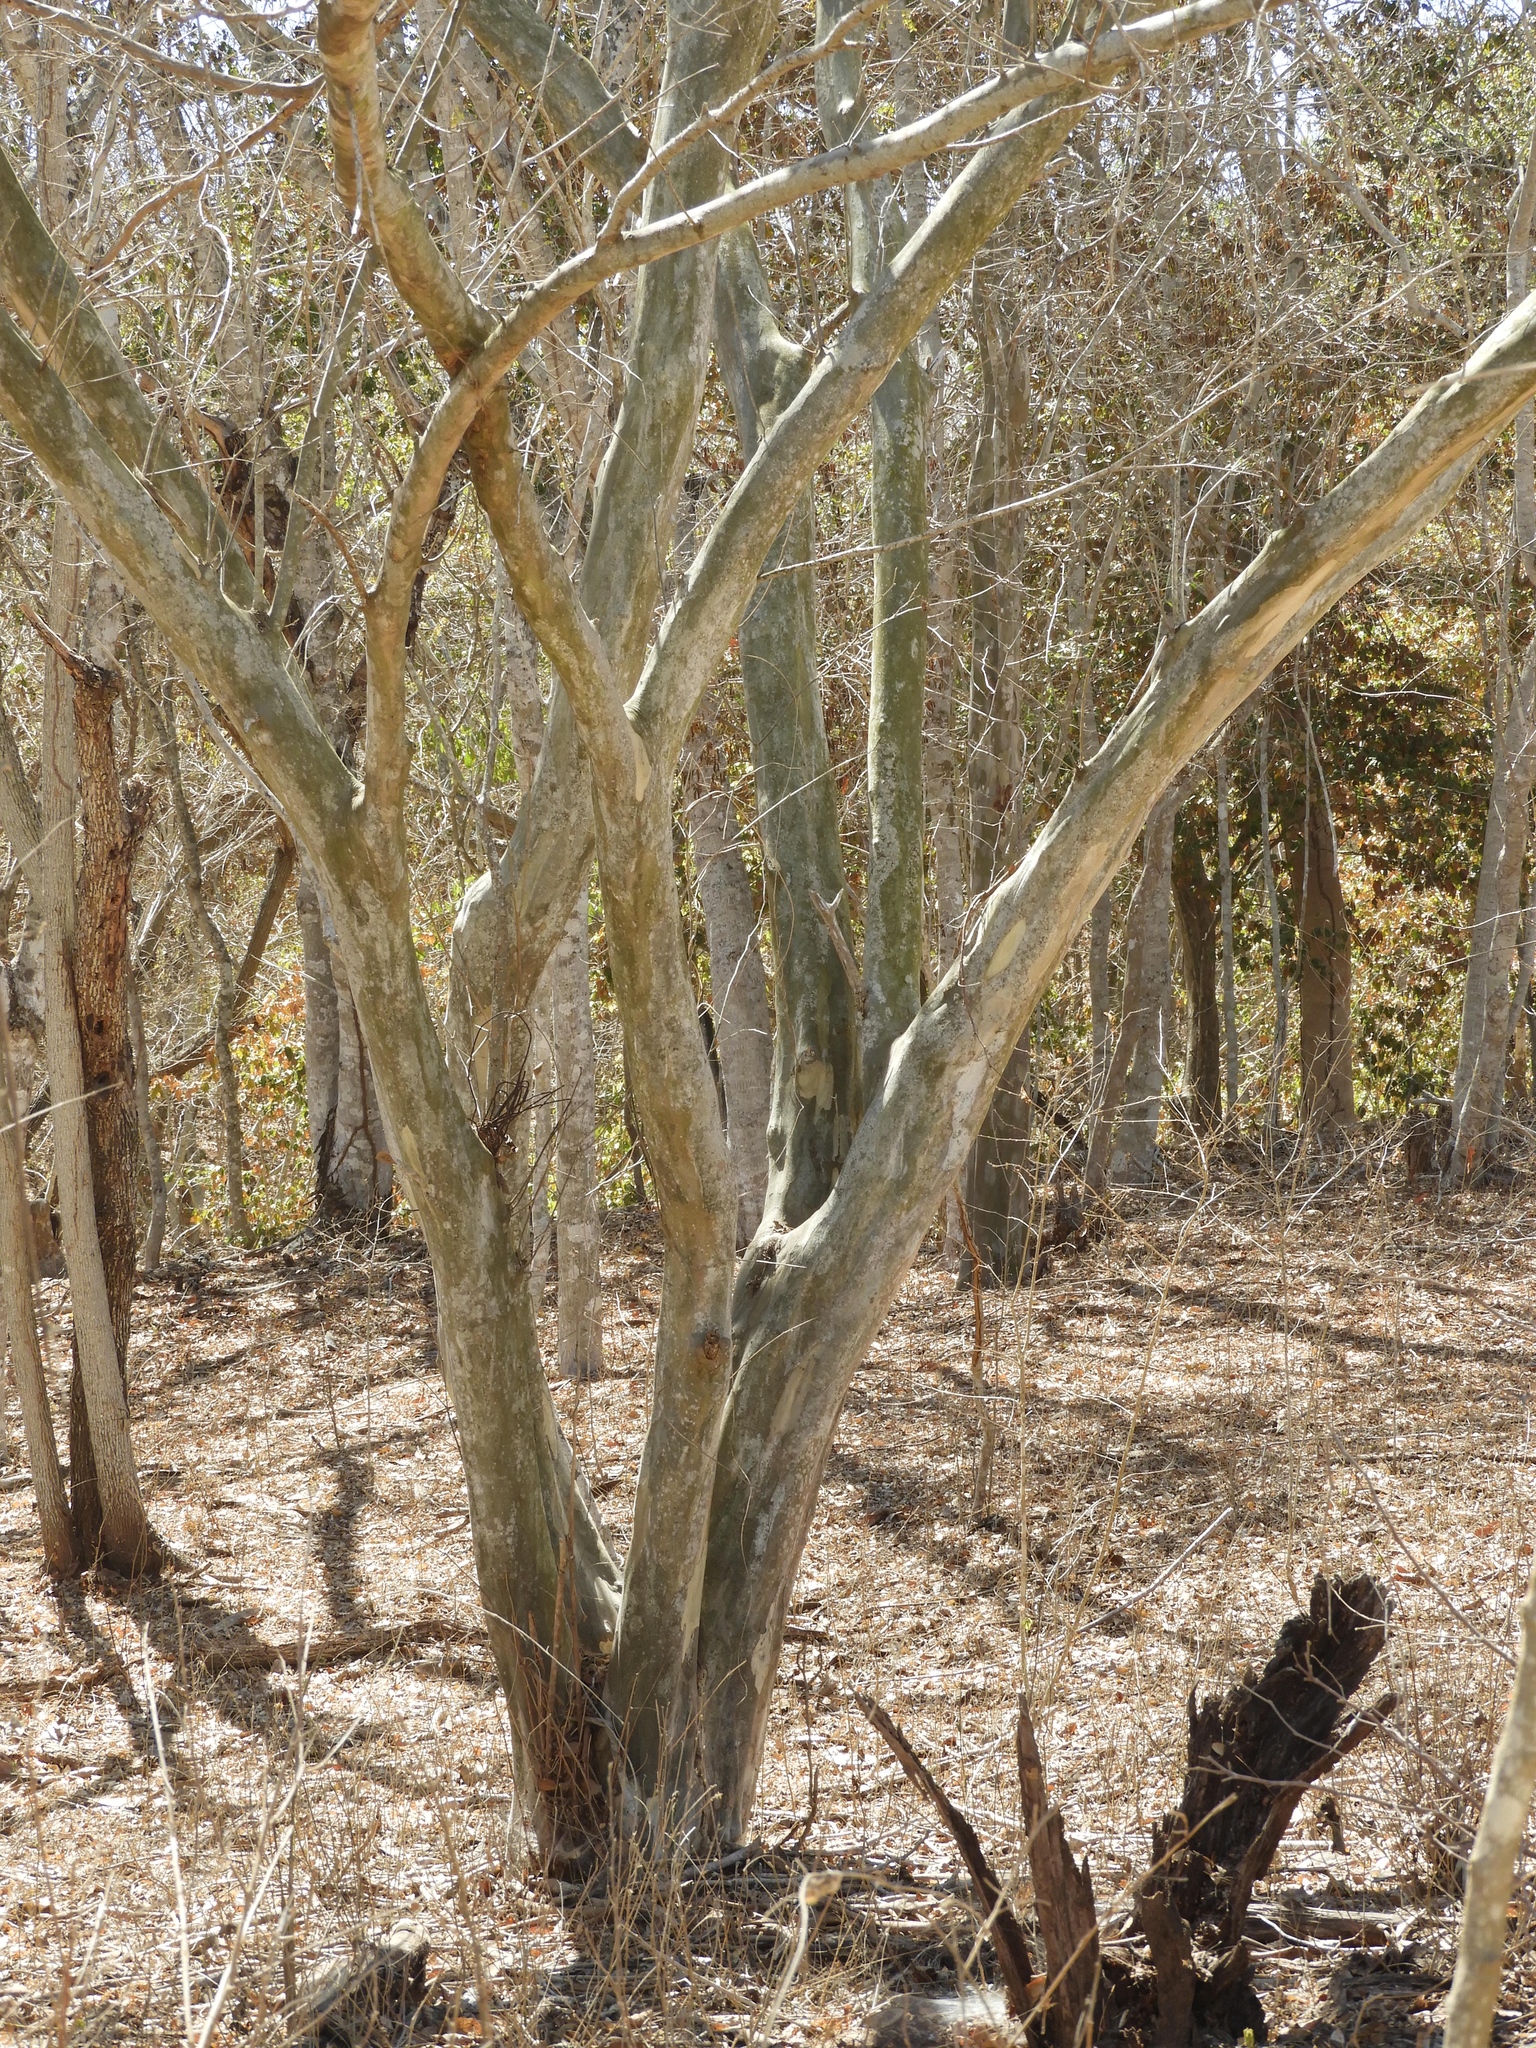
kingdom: Plantae
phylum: Tracheophyta
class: Magnoliopsida
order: Fabales
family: Fabaceae
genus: Chloroleucon
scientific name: Chloroleucon mangense
